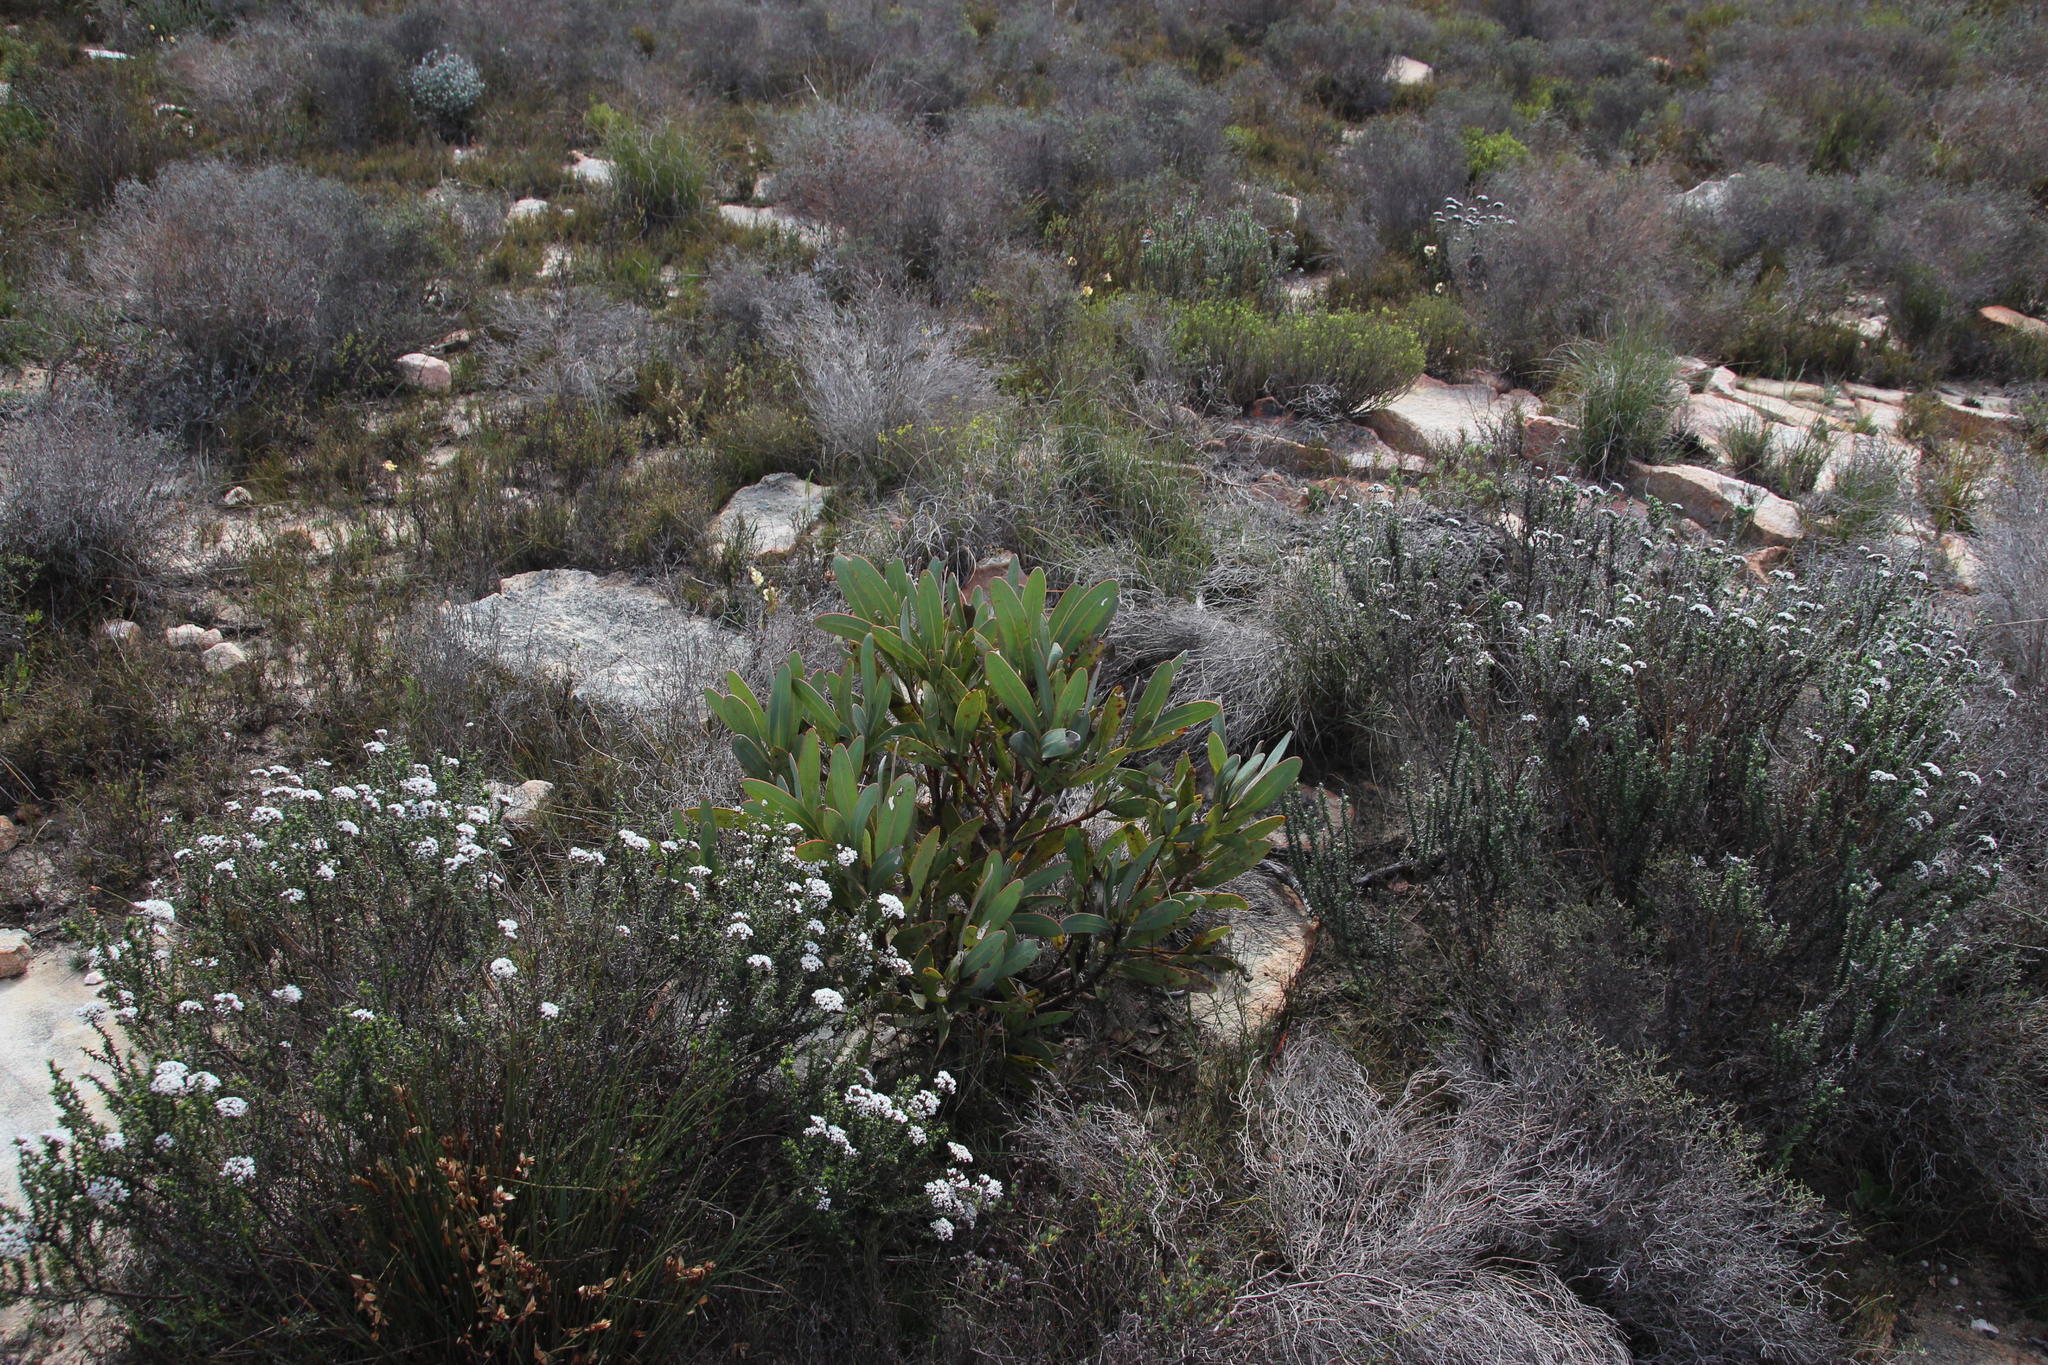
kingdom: Plantae
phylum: Tracheophyta
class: Magnoliopsida
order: Proteales
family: Proteaceae
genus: Protea
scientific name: Protea lorifolia
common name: Strap-leaved protea
